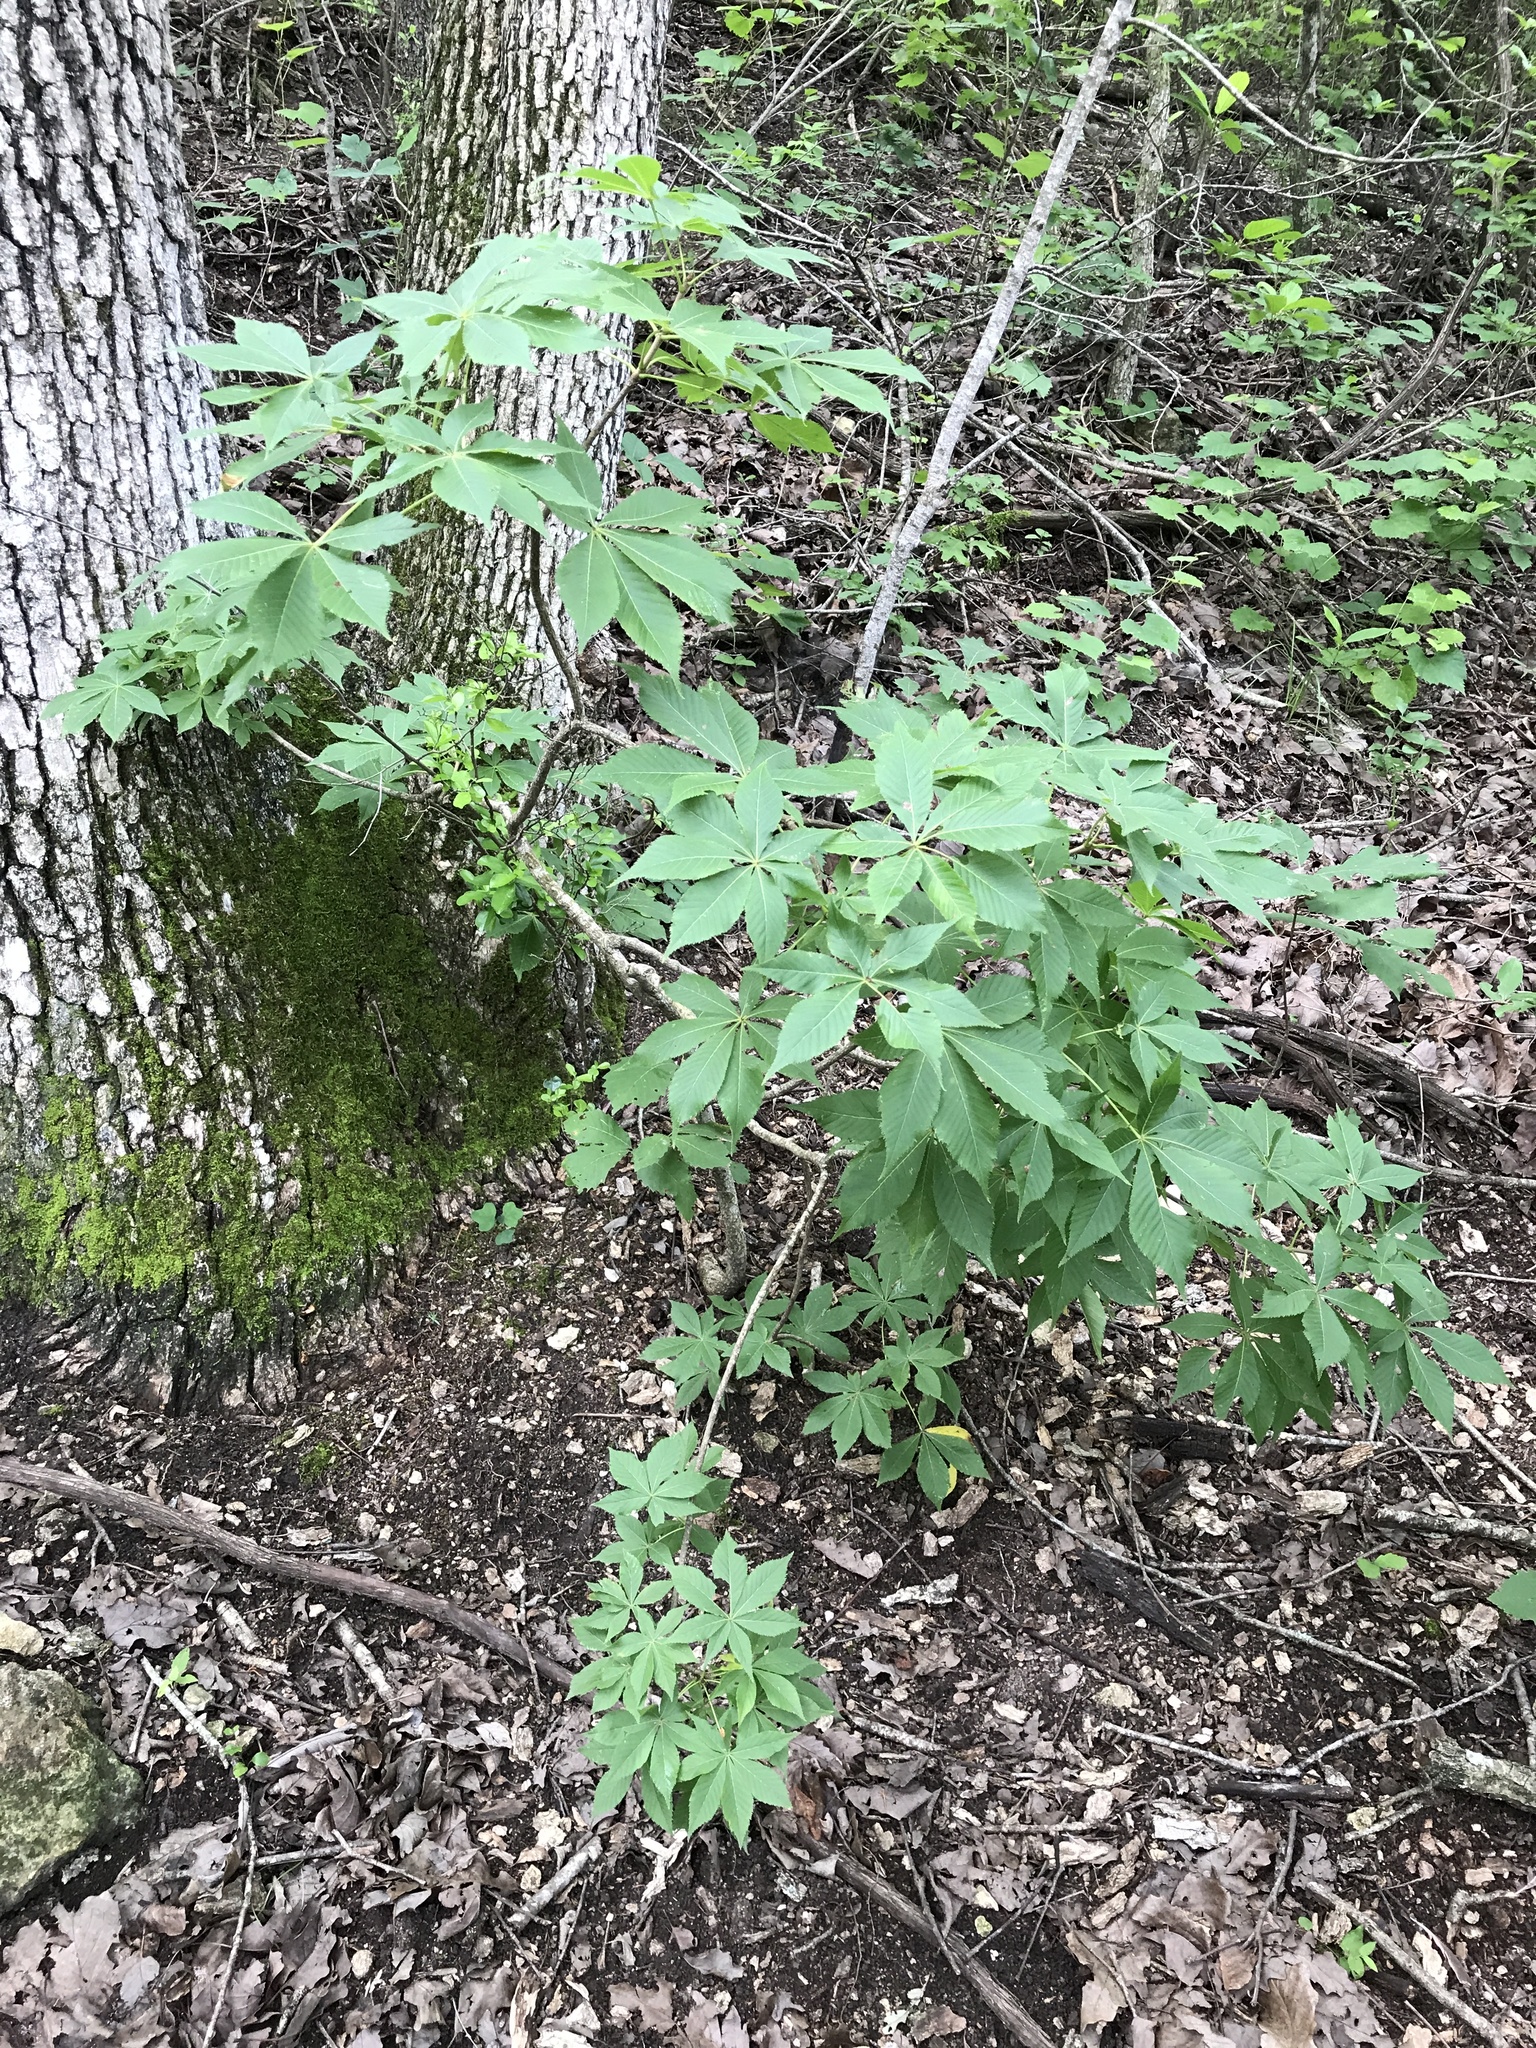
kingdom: Plantae
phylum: Tracheophyta
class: Magnoliopsida
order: Sapindales
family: Sapindaceae
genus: Aesculus
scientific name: Aesculus glabra
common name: Ohio buckeye
